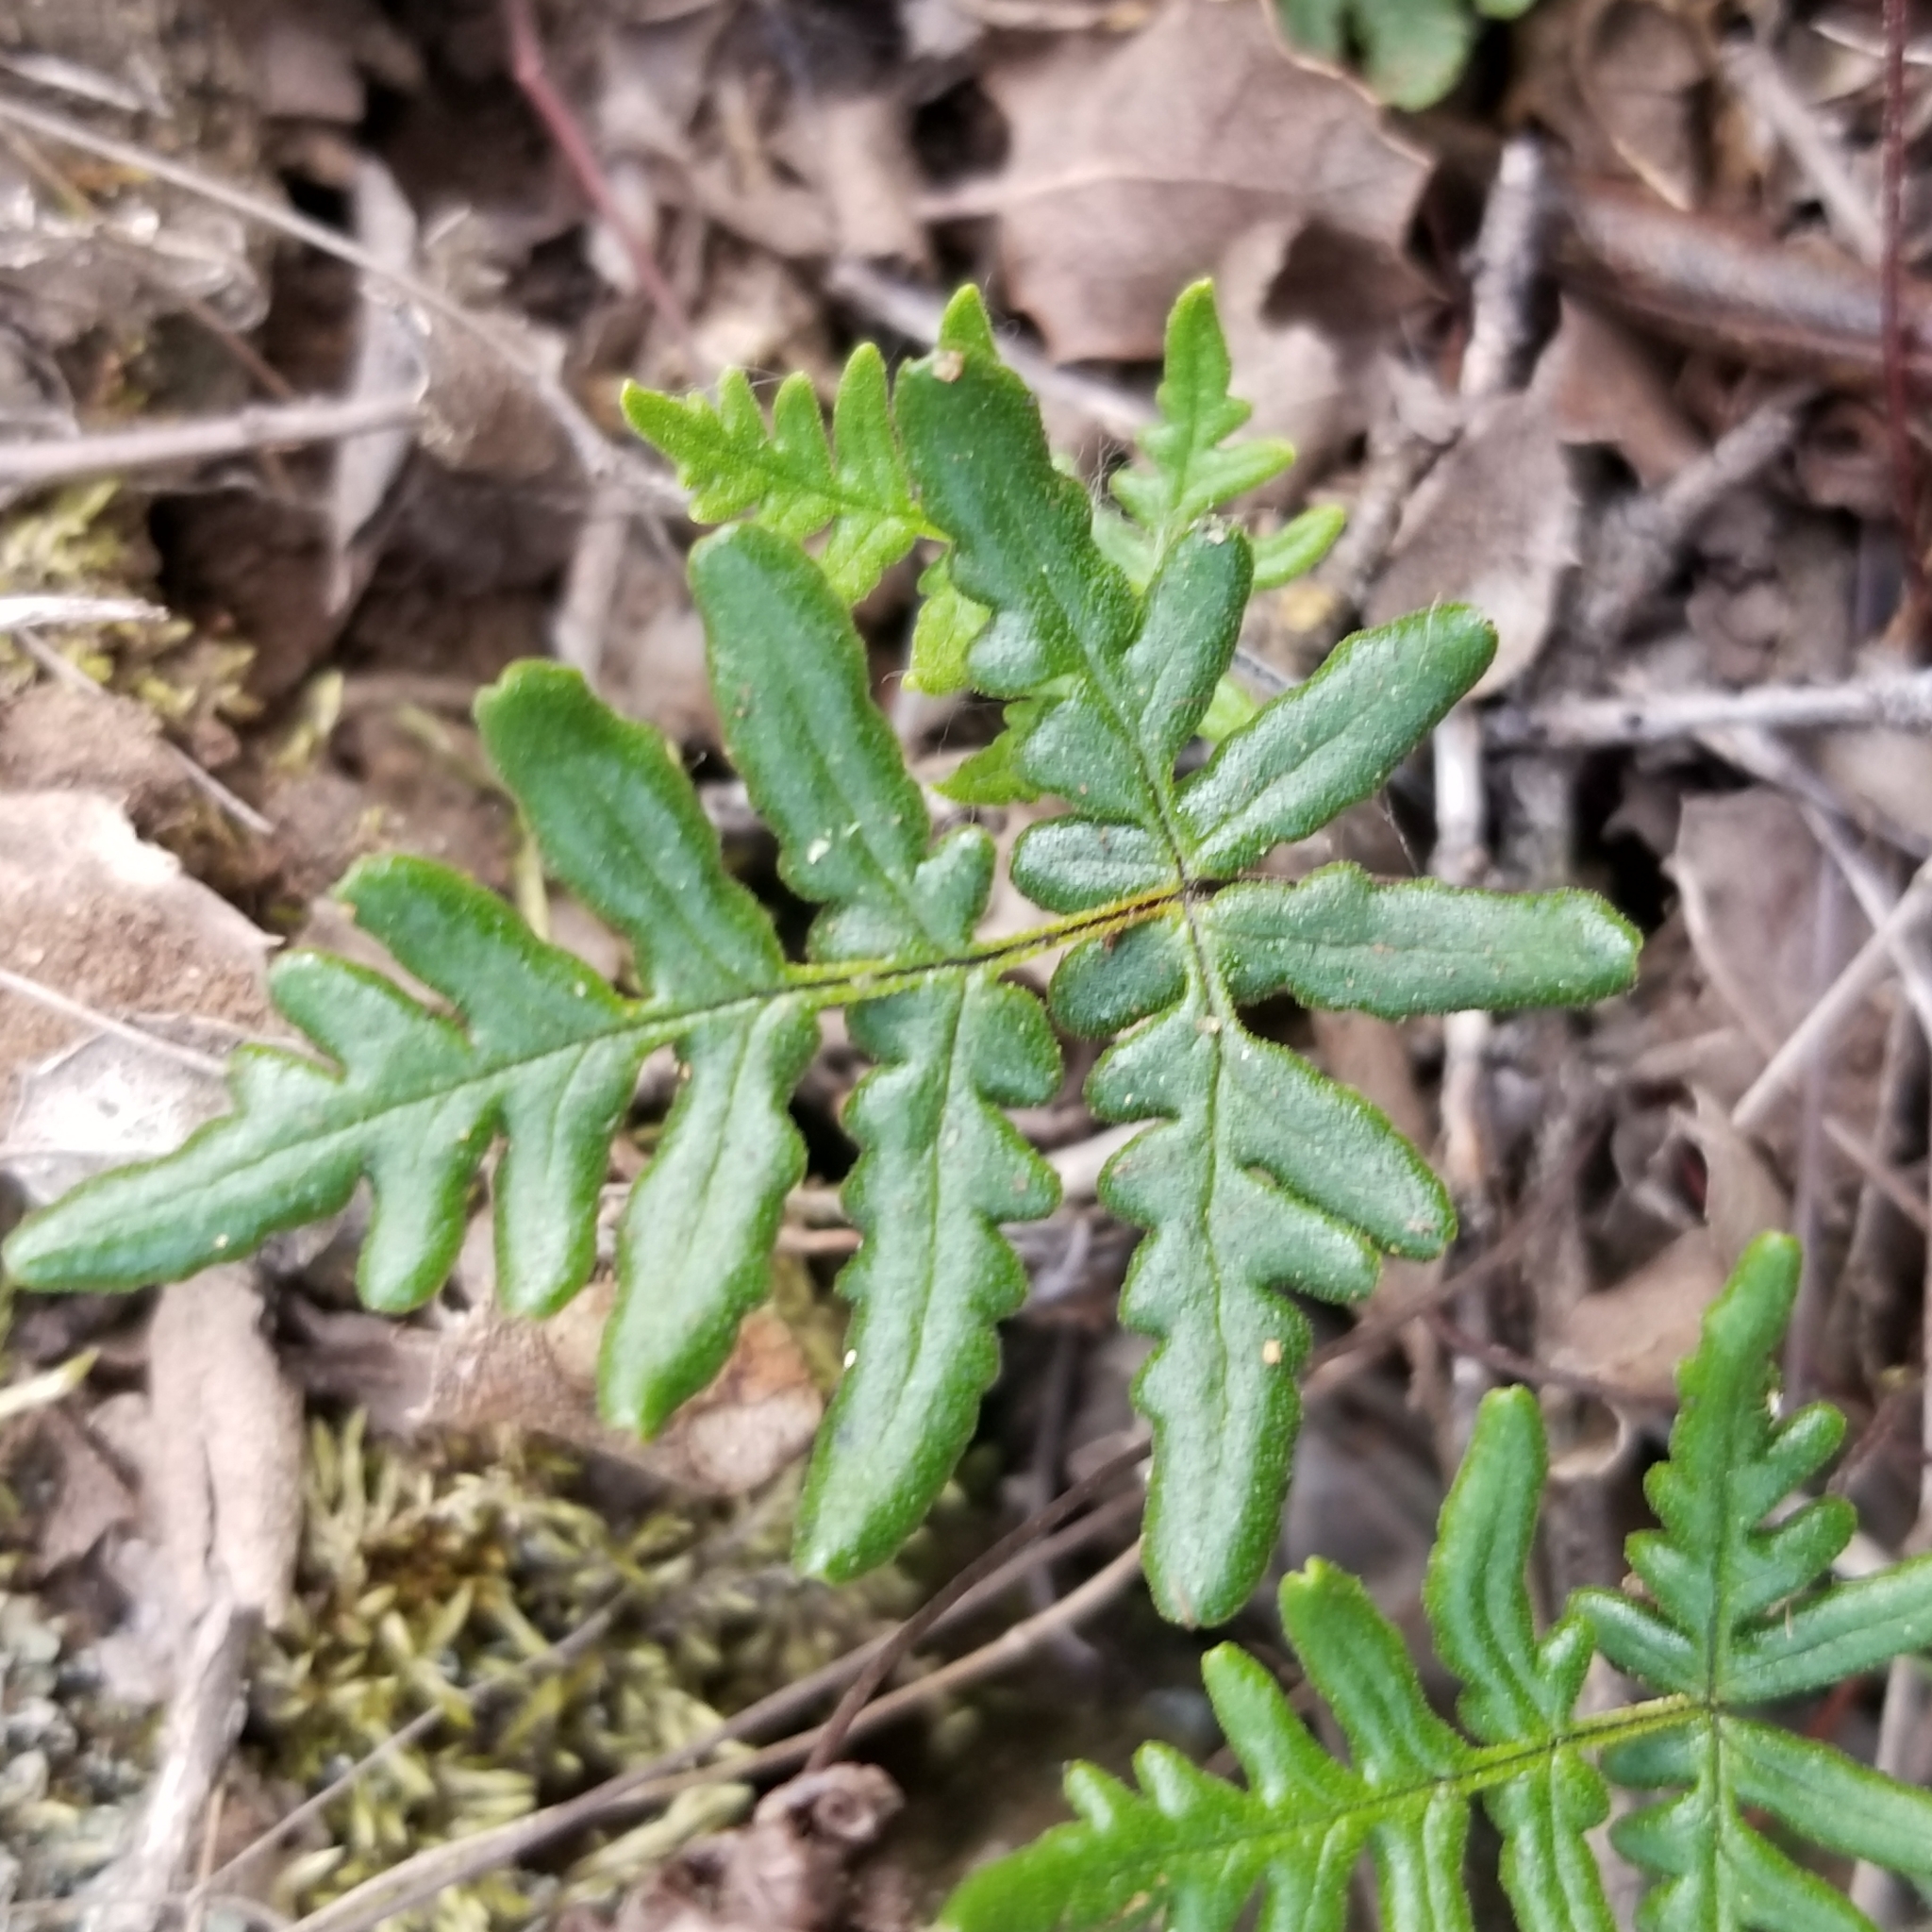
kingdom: Plantae
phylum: Tracheophyta
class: Polypodiopsida
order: Polypodiales
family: Pteridaceae
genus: Pentagramma
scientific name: Pentagramma viscosa
